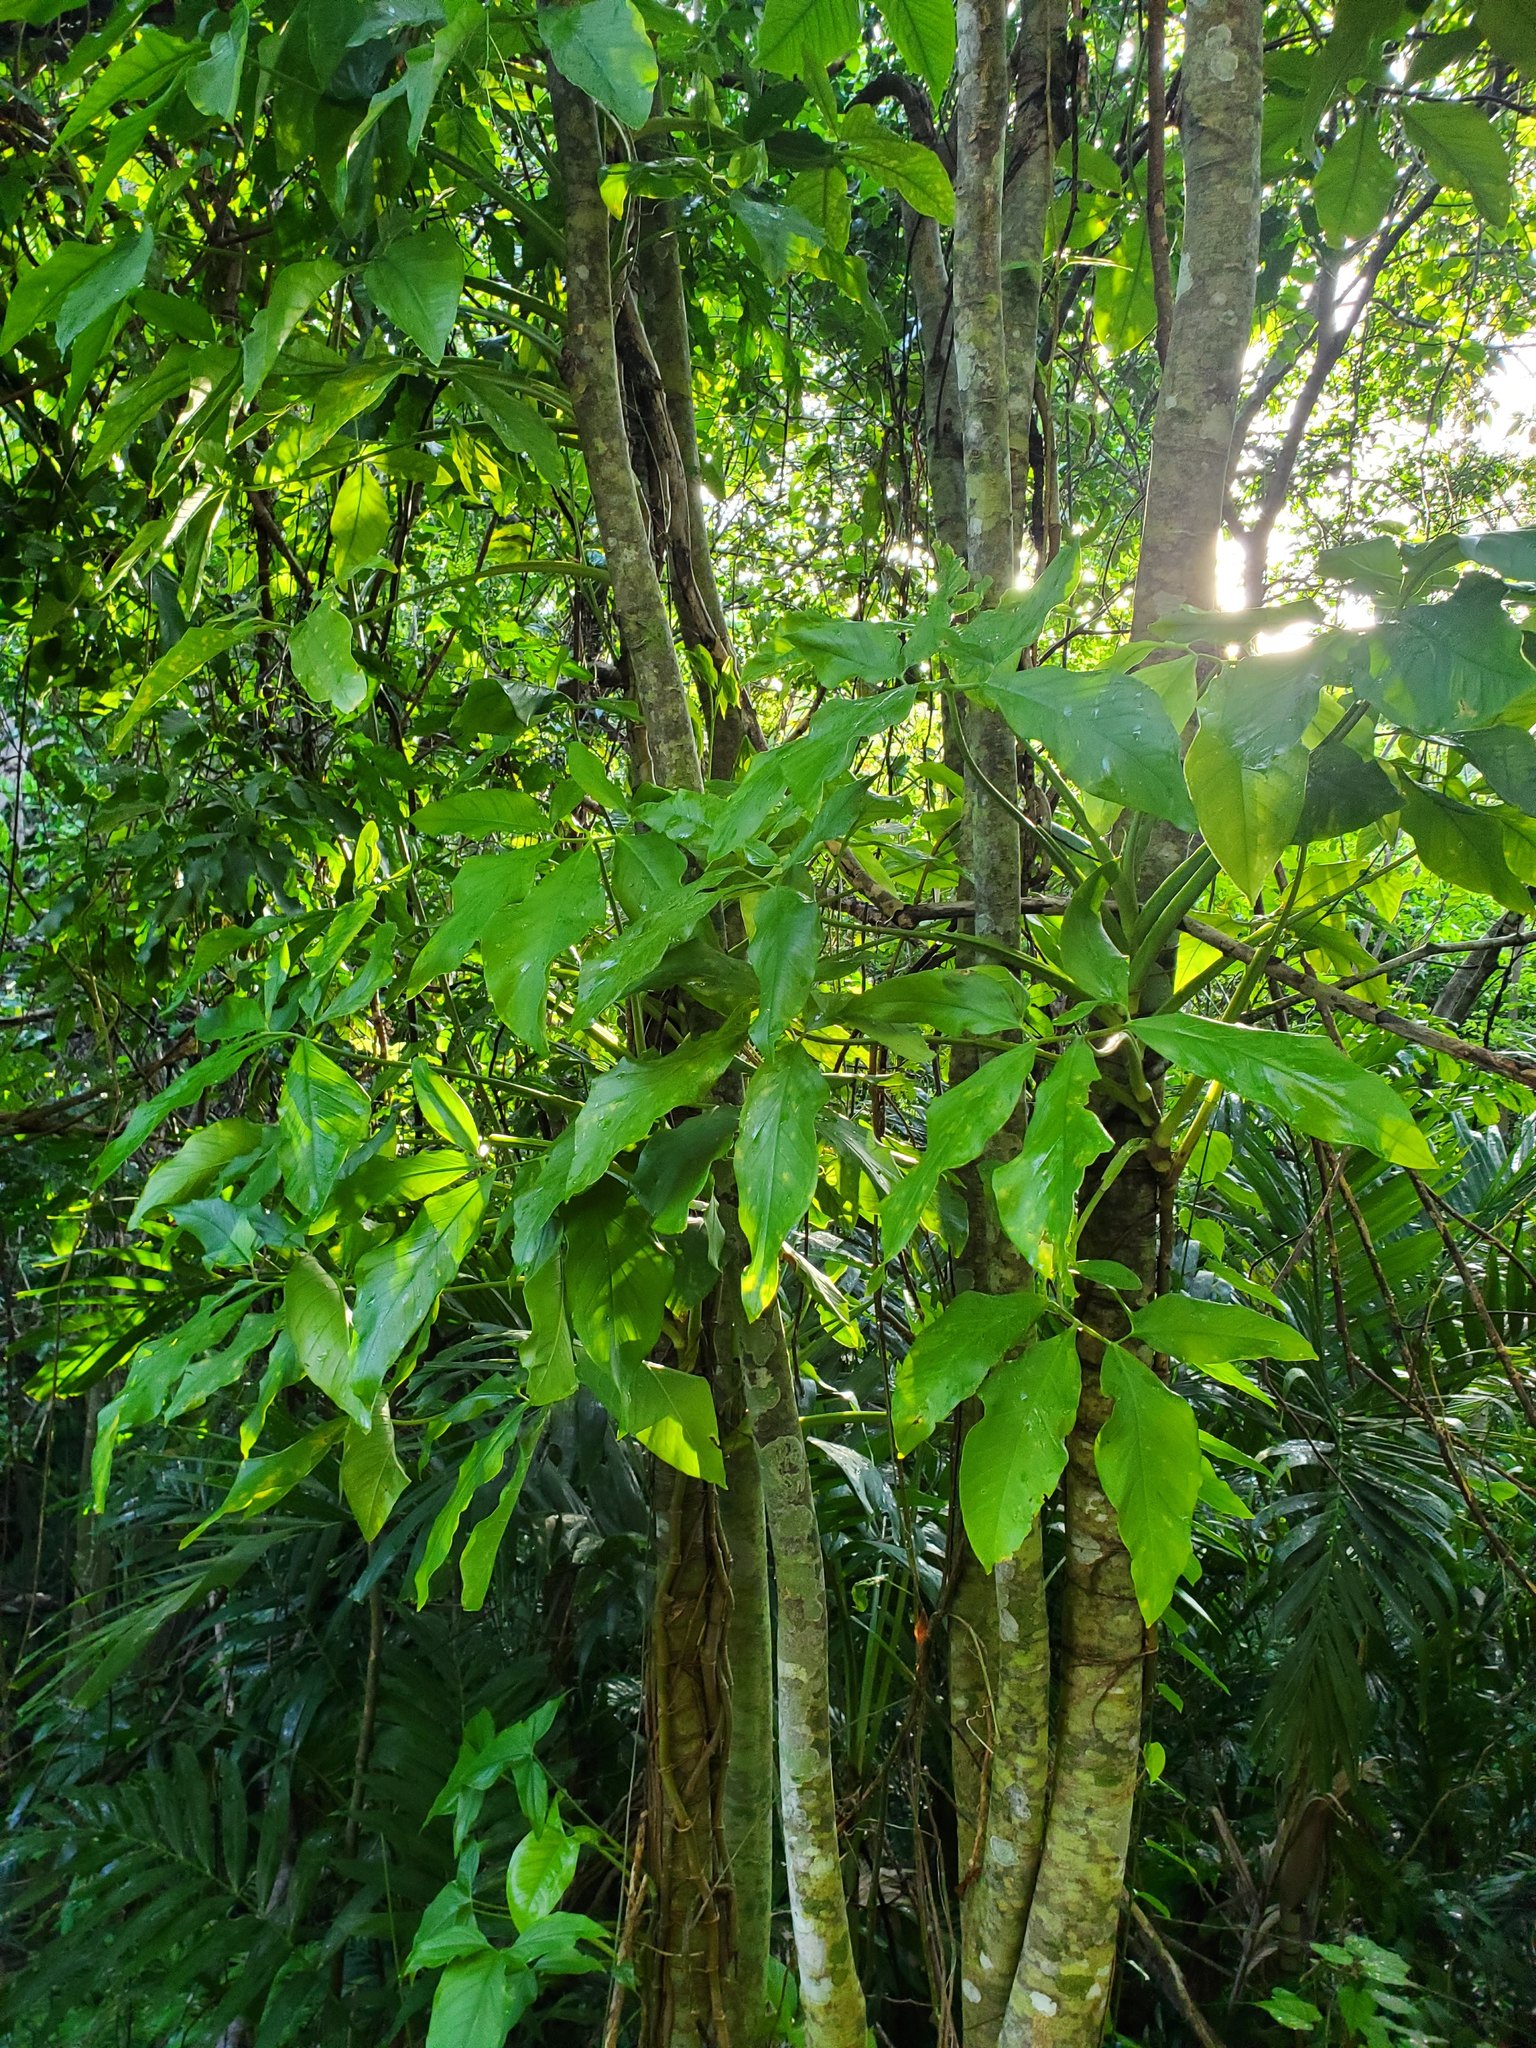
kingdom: Plantae
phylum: Tracheophyta
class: Liliopsida
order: Alismatales
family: Araceae
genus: Syngonium
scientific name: Syngonium podophyllum
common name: American evergreen
